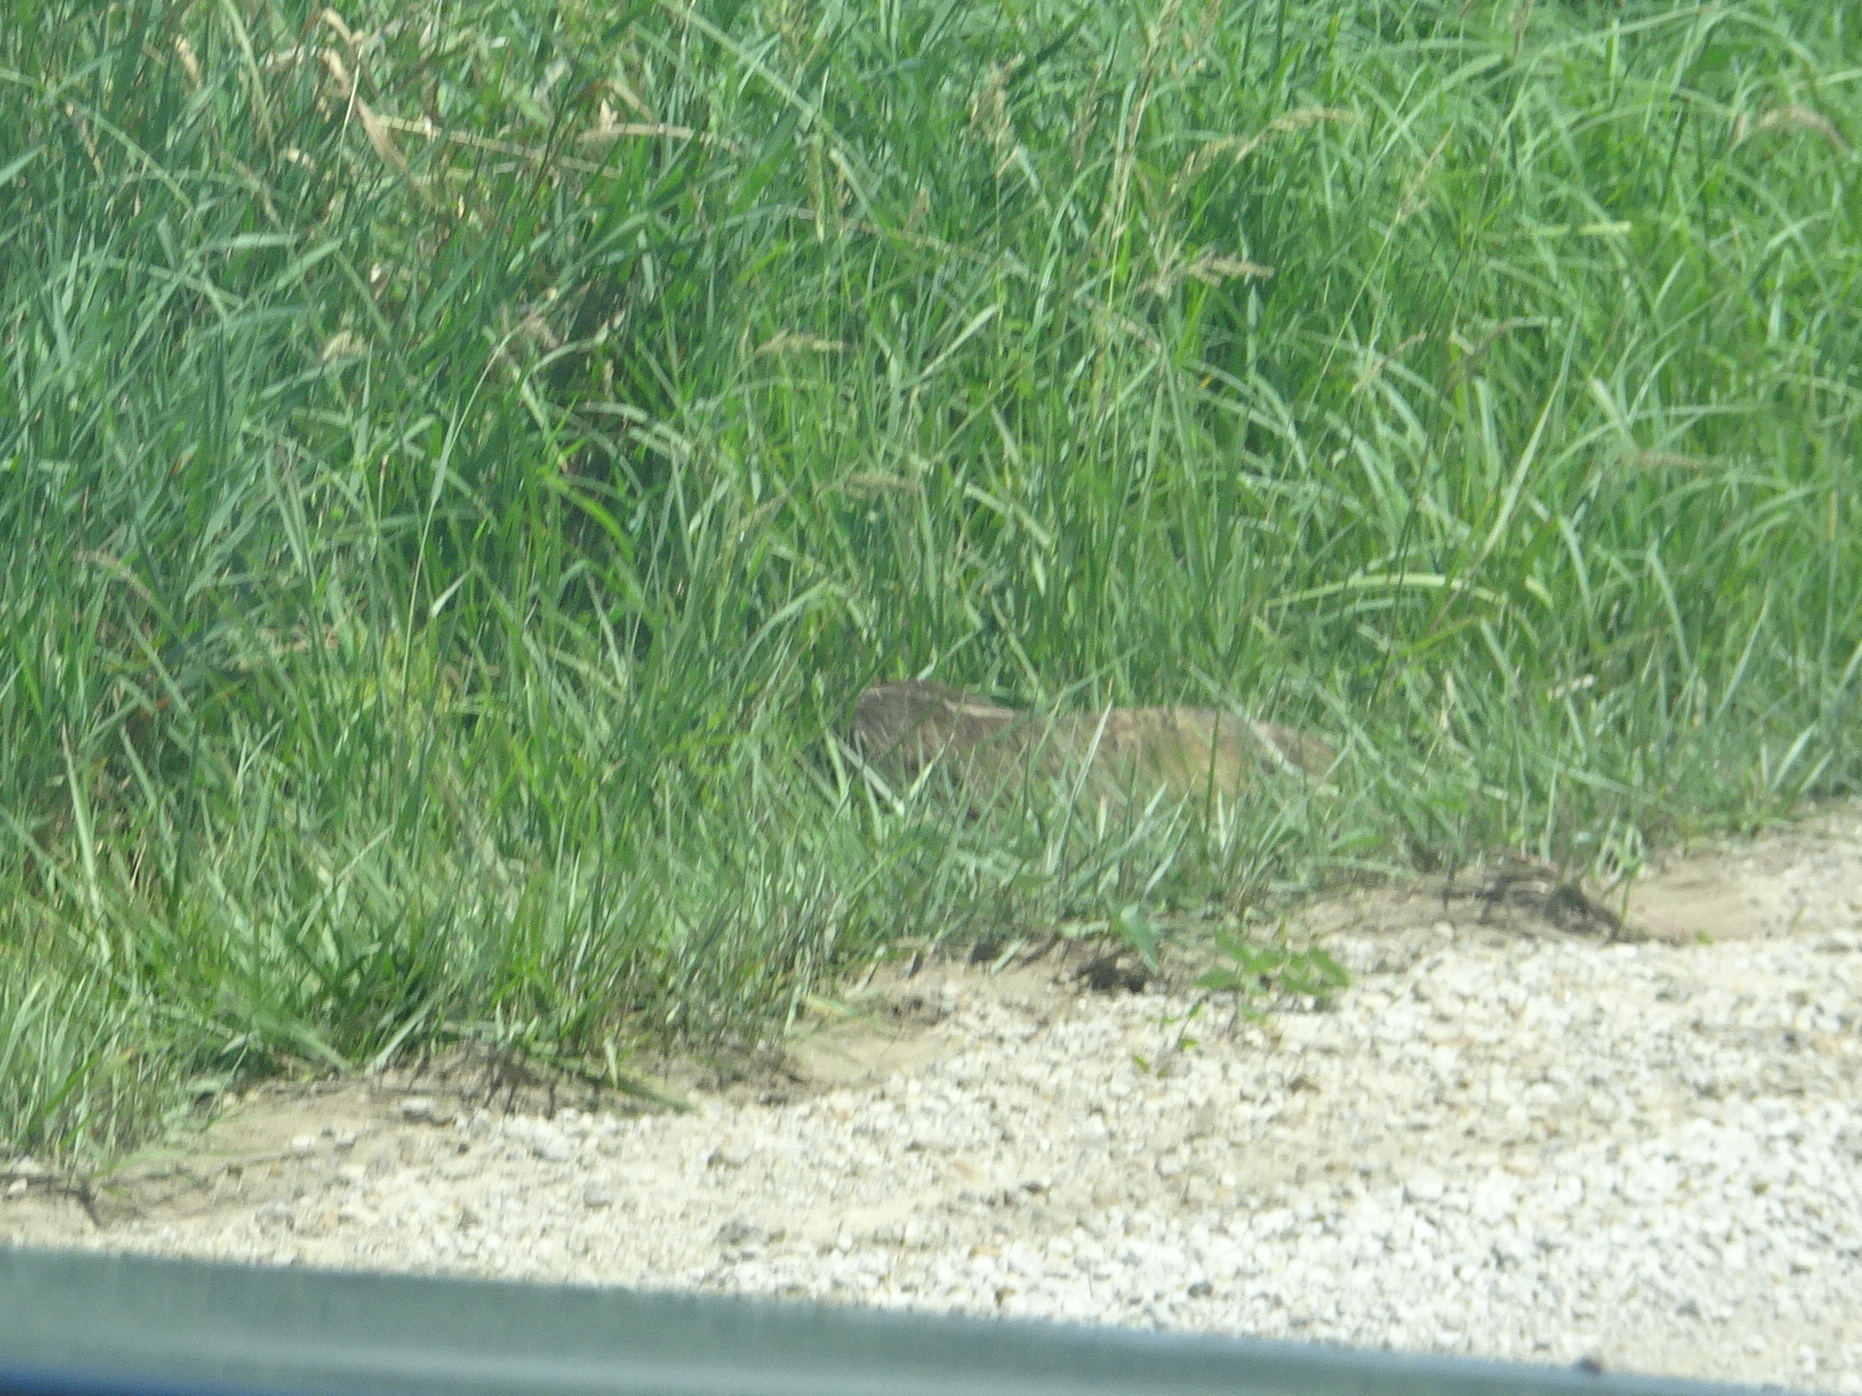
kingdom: Animalia
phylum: Chordata
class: Mammalia
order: Carnivora
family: Mustelidae
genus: Taxidea
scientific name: Taxidea taxus
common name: American badger
